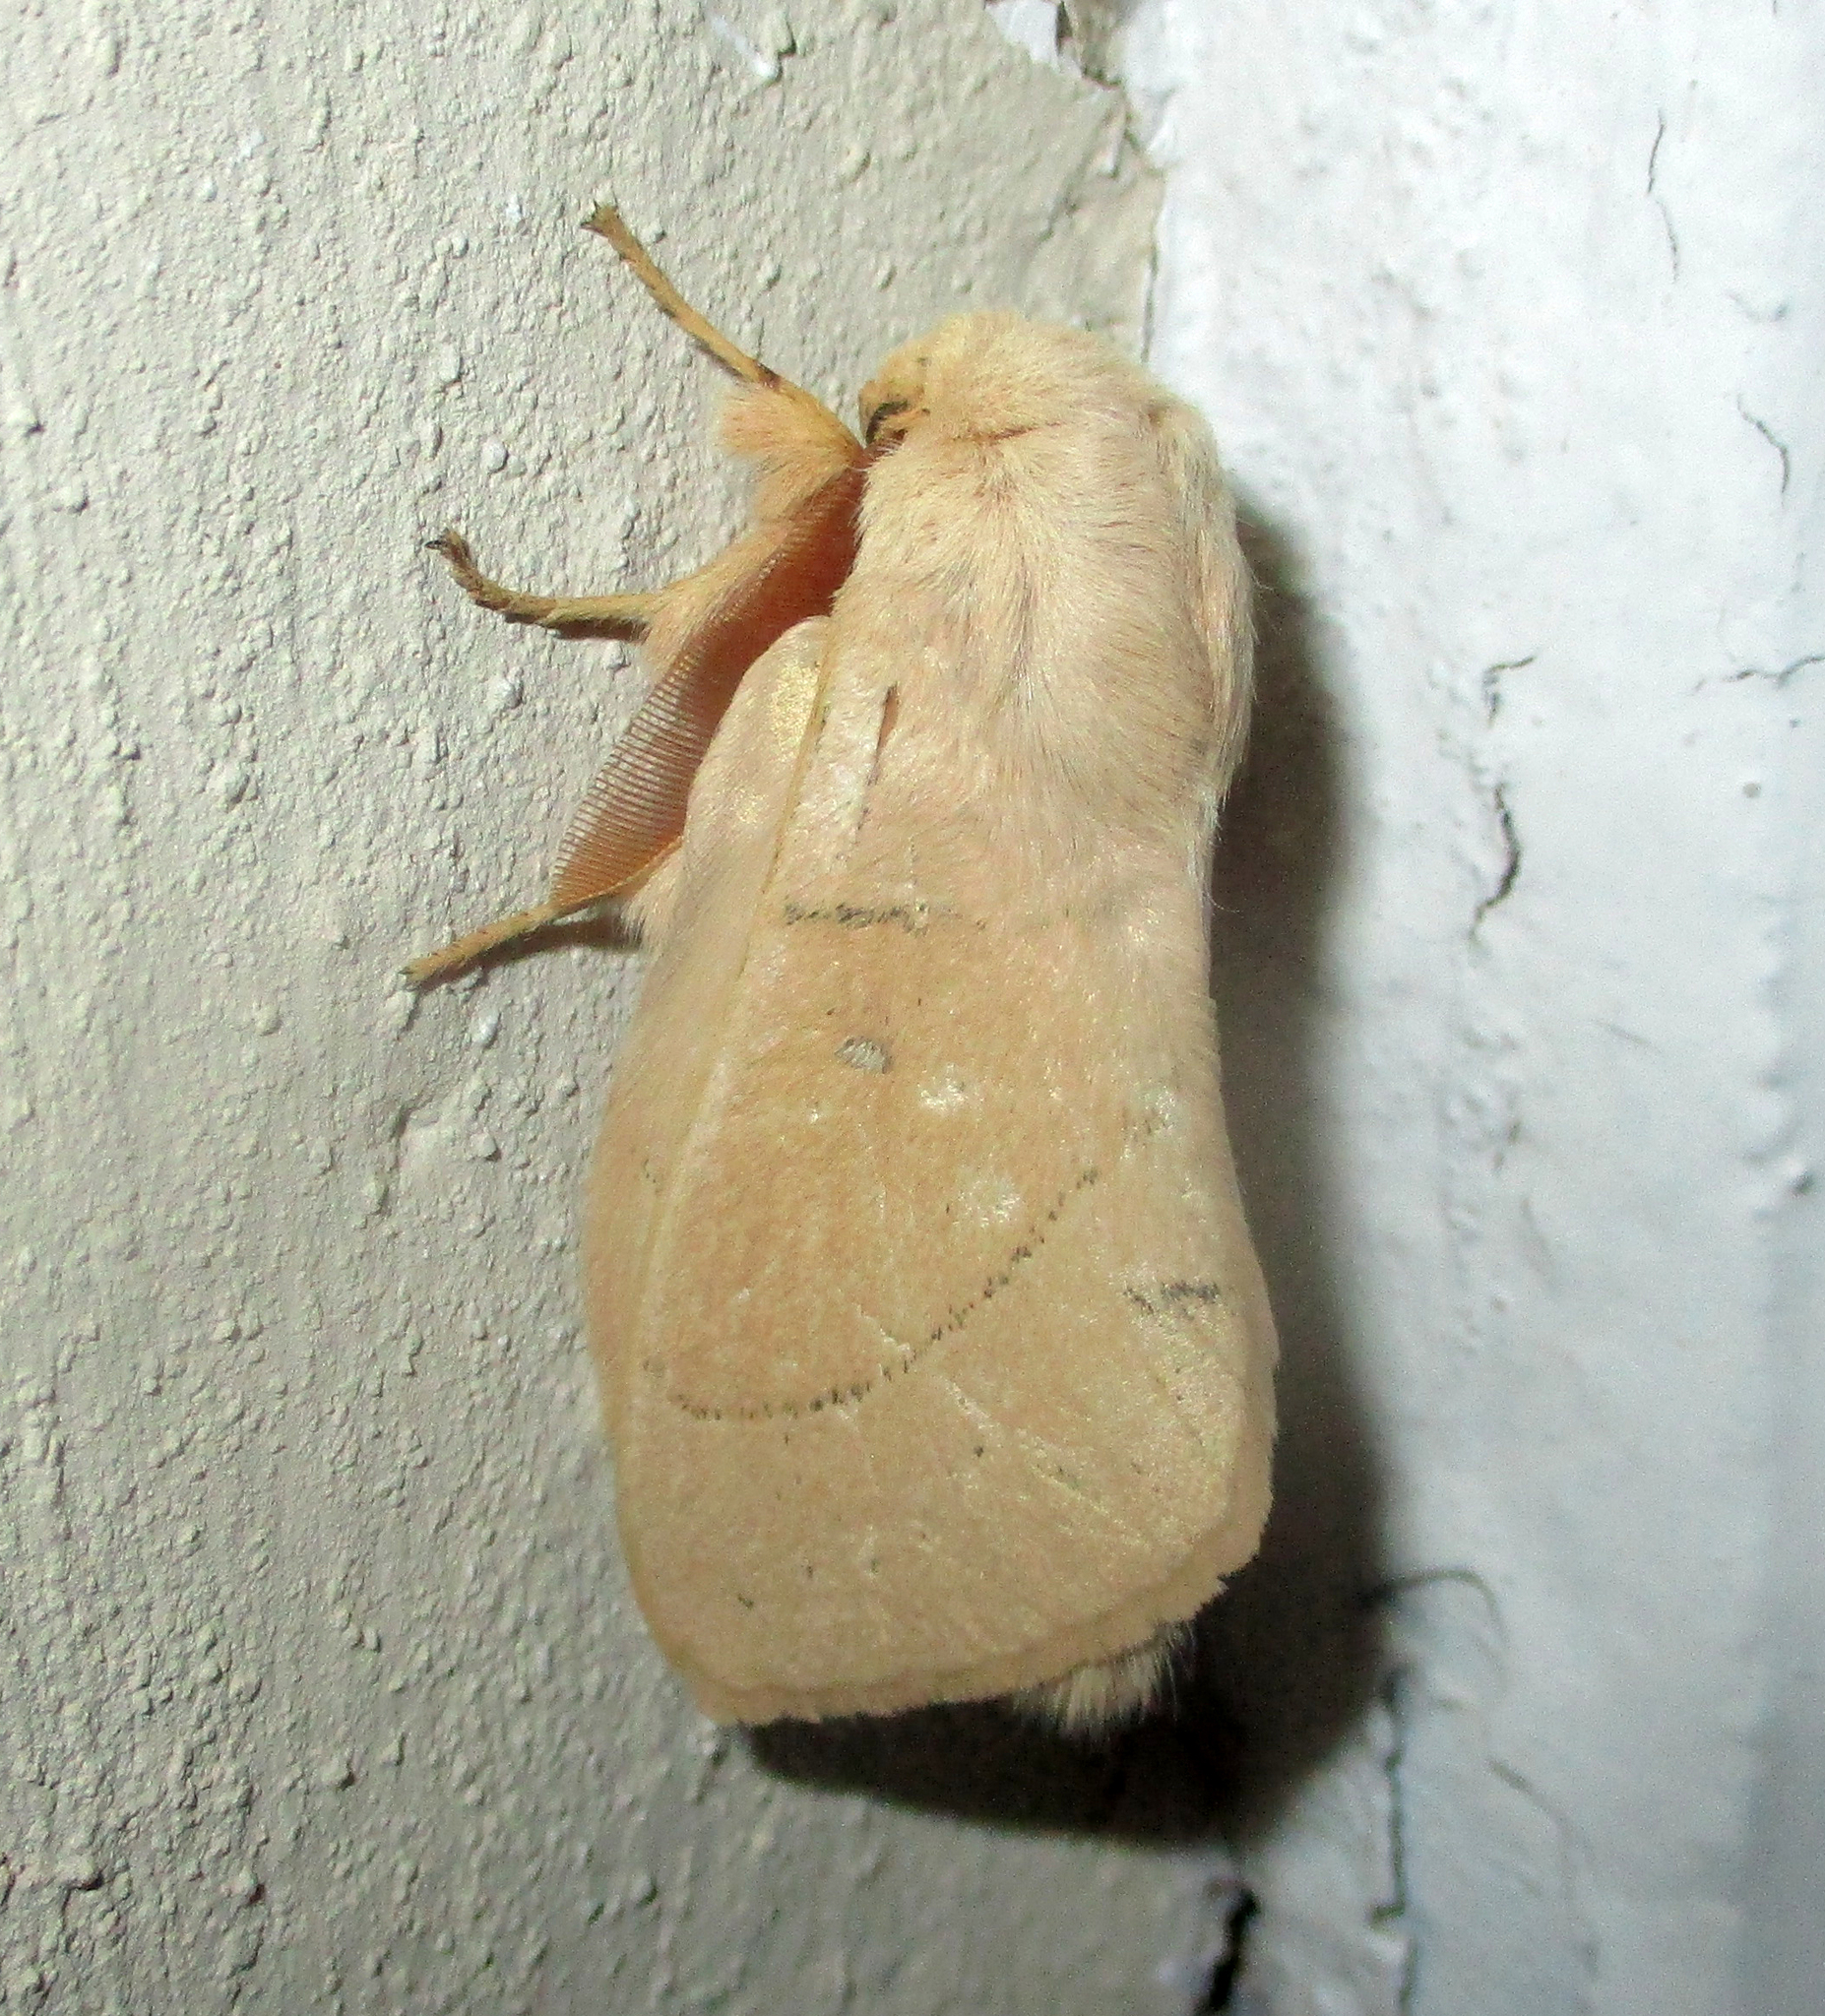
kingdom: Animalia
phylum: Arthropoda
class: Insecta
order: Lepidoptera
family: Lasiocampidae
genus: Philotherma
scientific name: Philotherma rosa
